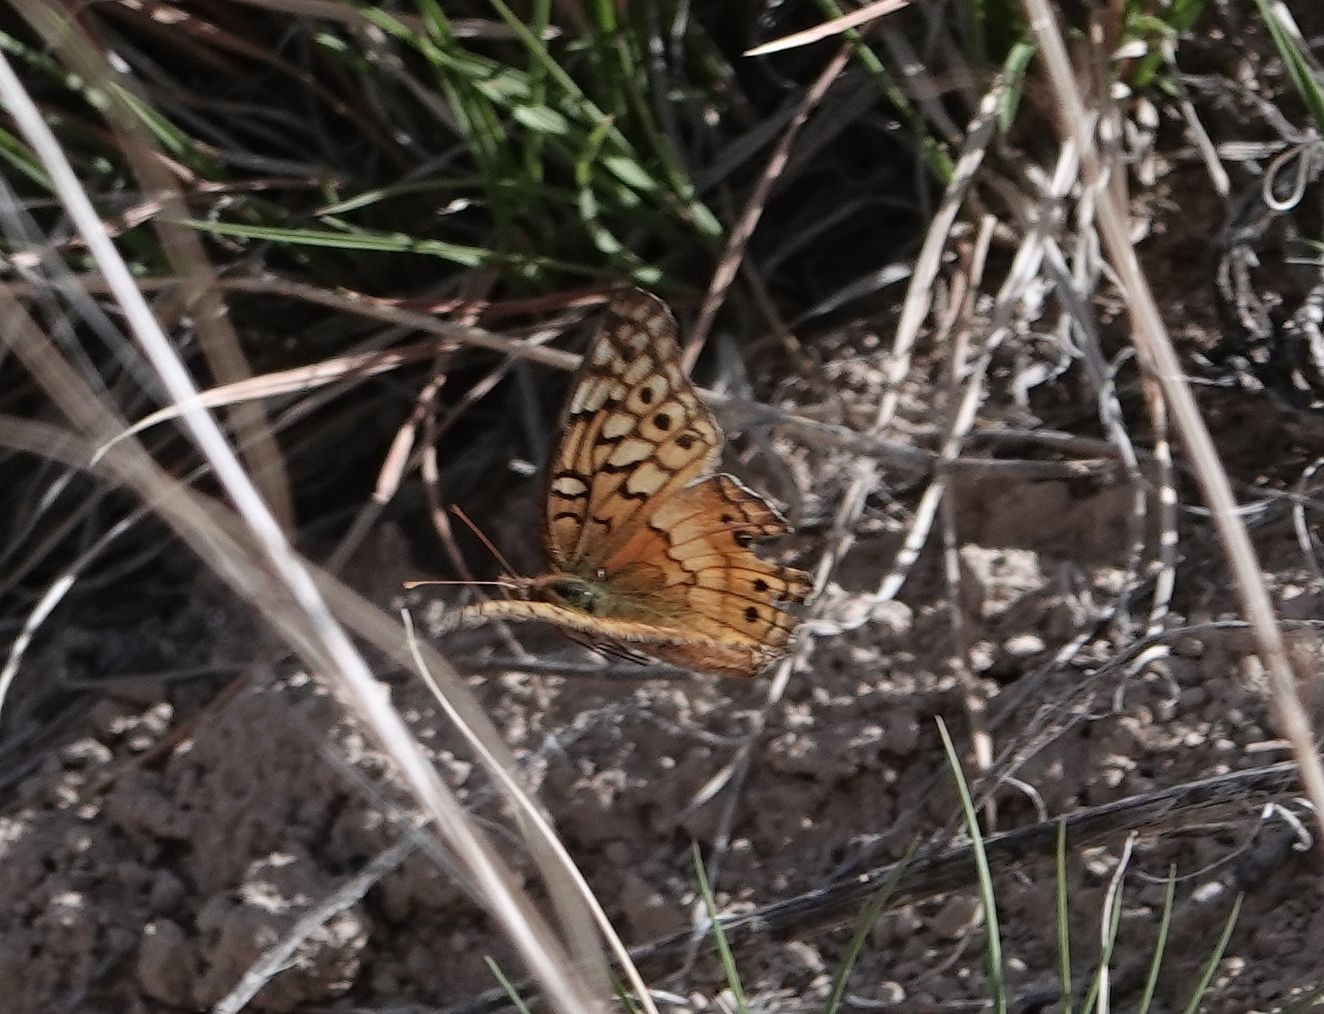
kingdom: Animalia
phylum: Arthropoda
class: Insecta
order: Lepidoptera
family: Nymphalidae
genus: Euptoieta
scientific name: Euptoieta claudia
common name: Variegated fritillary
